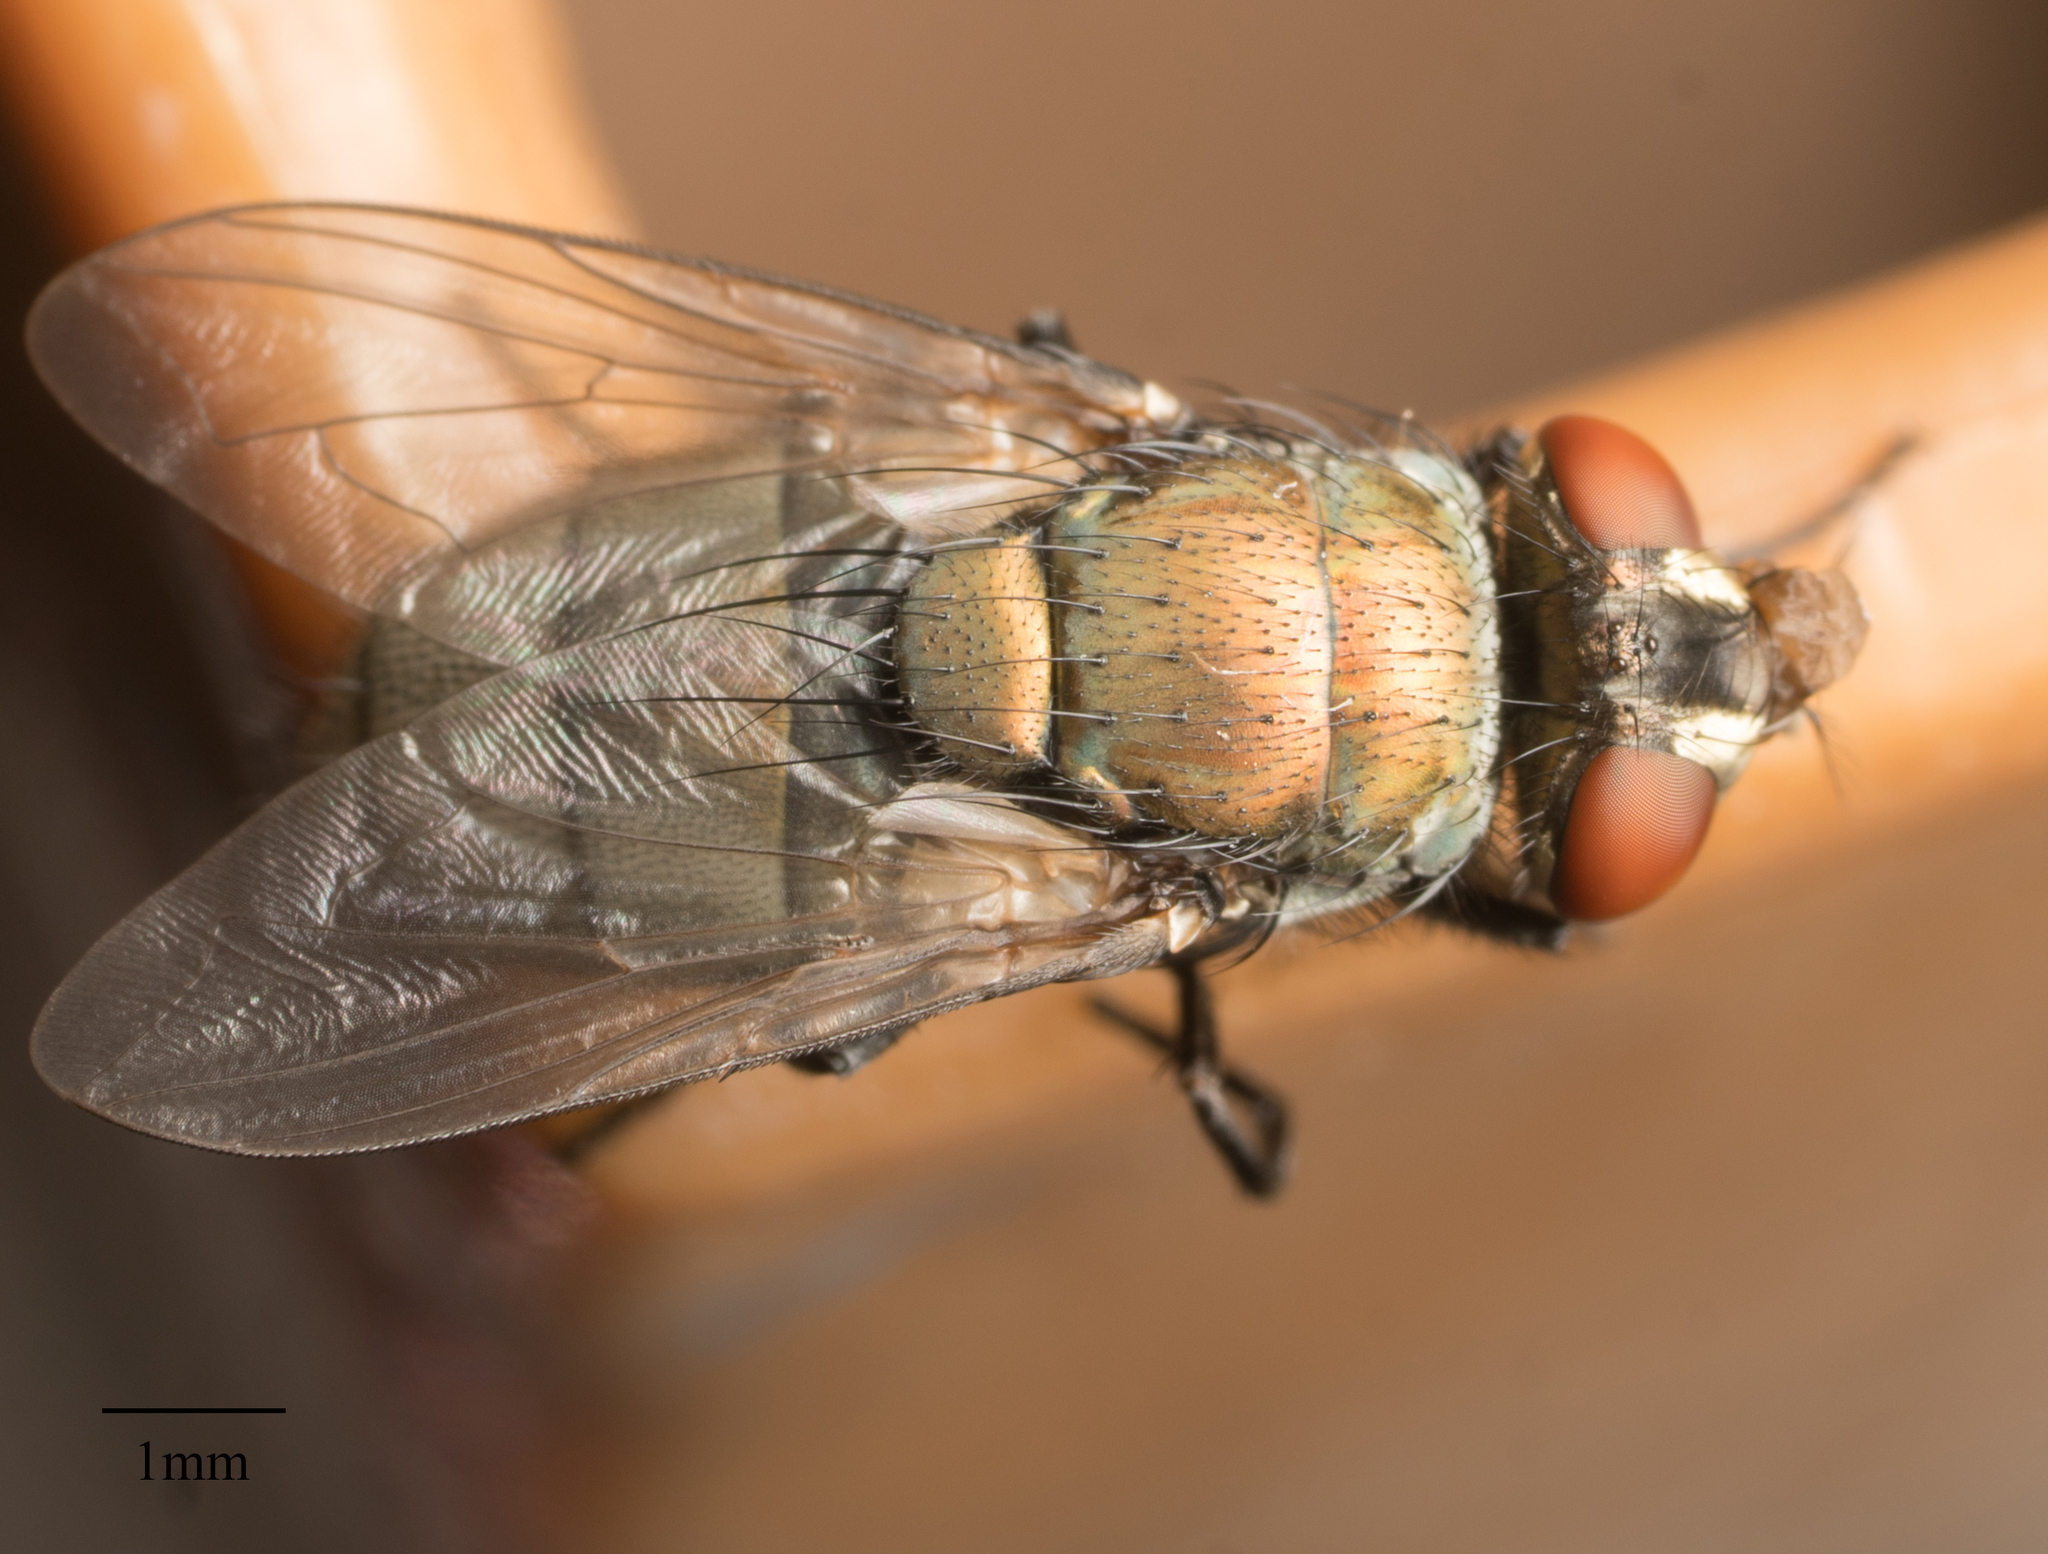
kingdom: Animalia
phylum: Arthropoda
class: Insecta
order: Diptera
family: Calliphoridae
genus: Lucilia
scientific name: Lucilia cuprina
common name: Sheep blow fly
